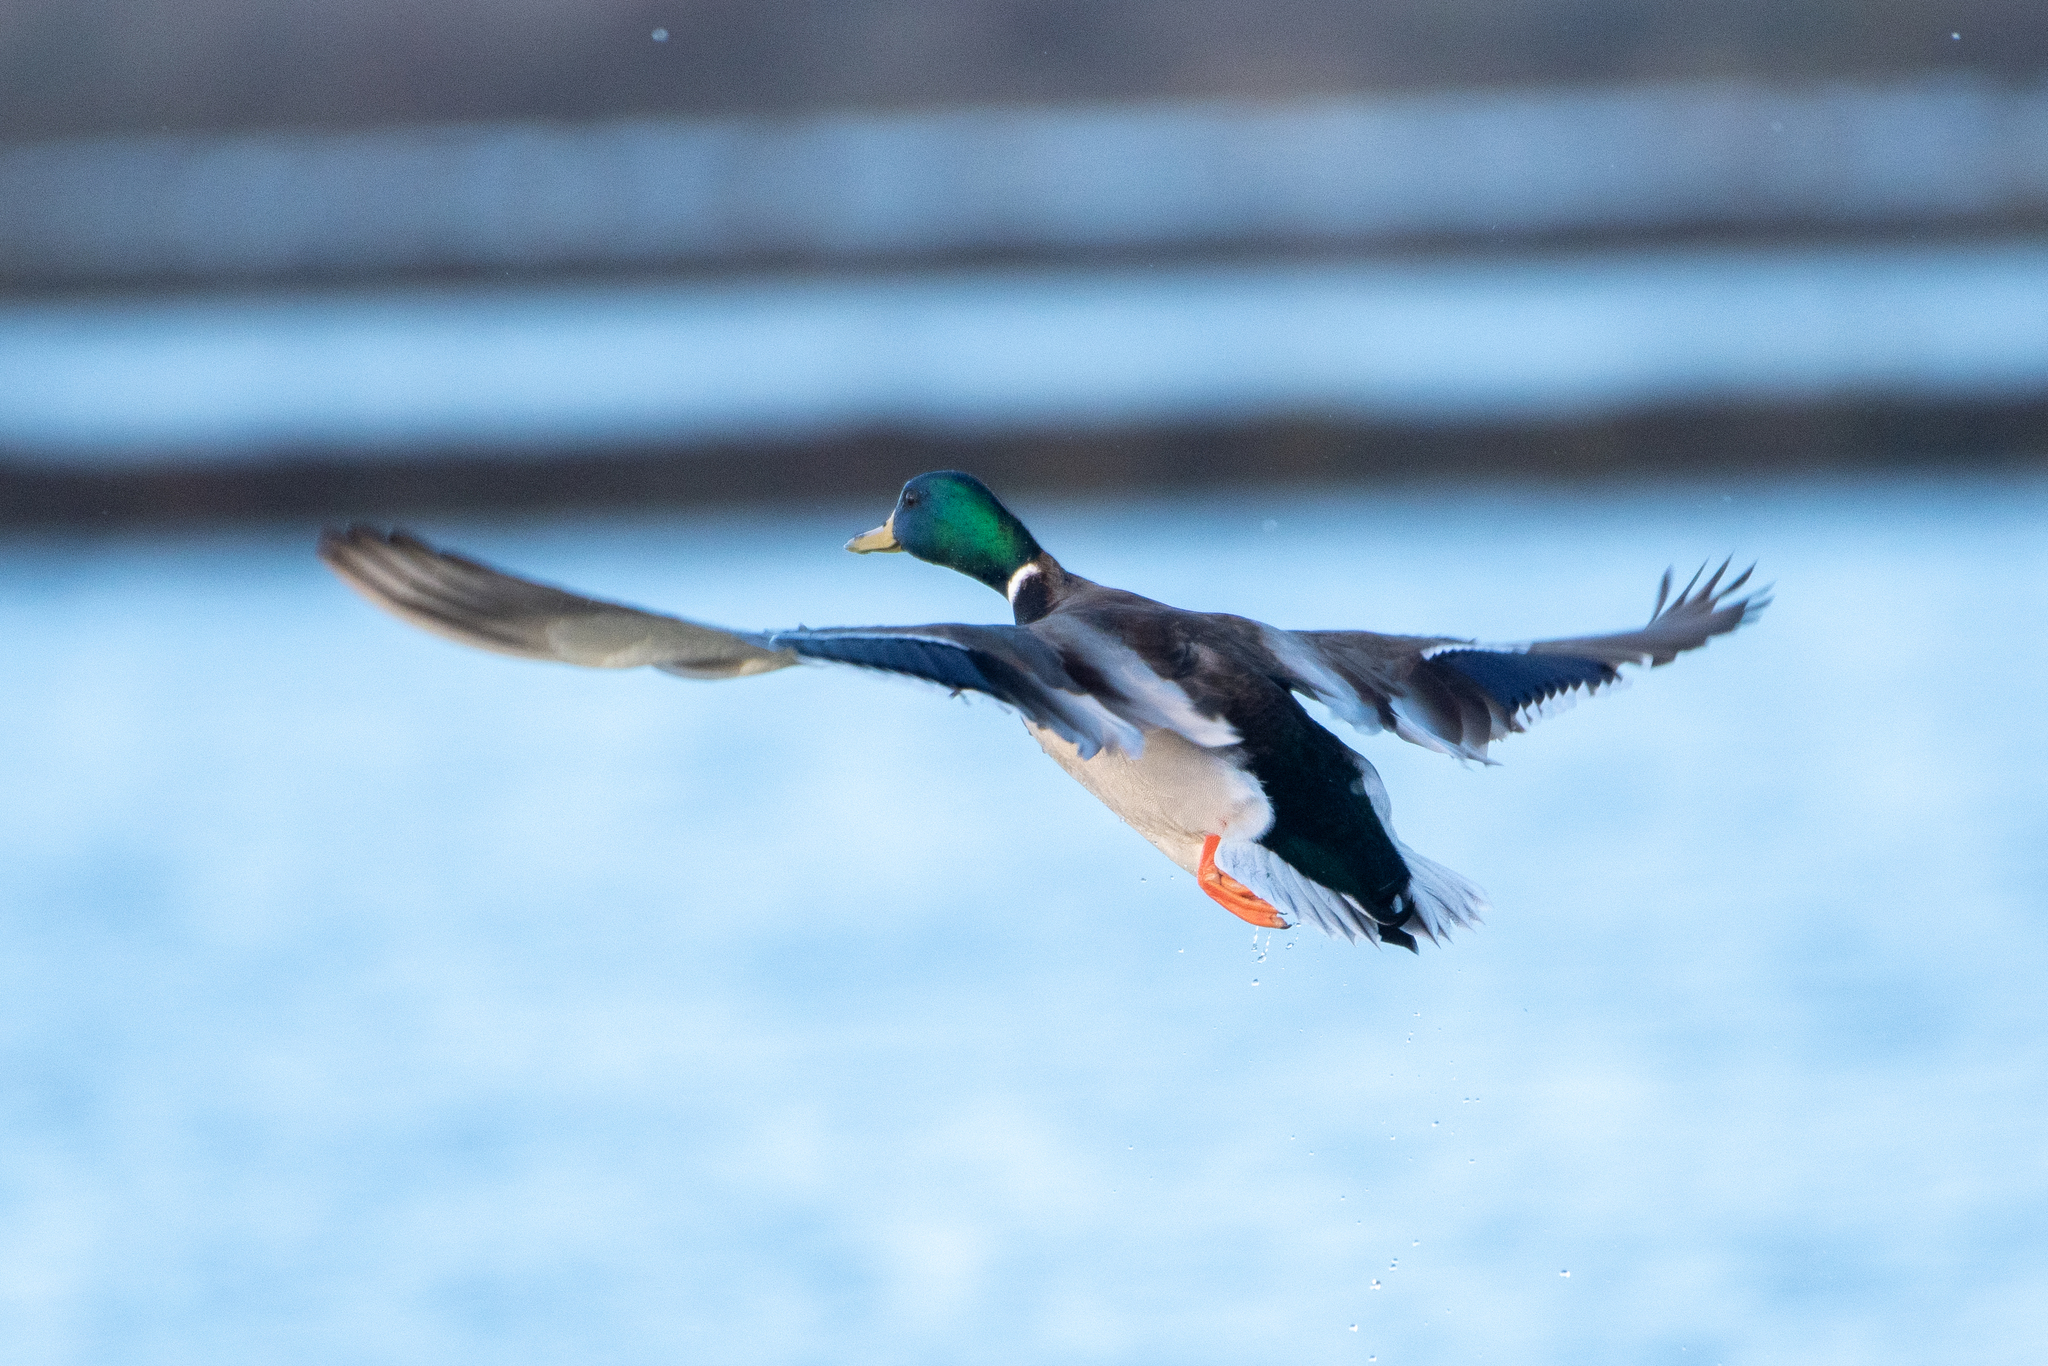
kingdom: Animalia
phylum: Chordata
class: Aves
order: Anseriformes
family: Anatidae
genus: Anas
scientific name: Anas platyrhynchos
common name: Mallard
